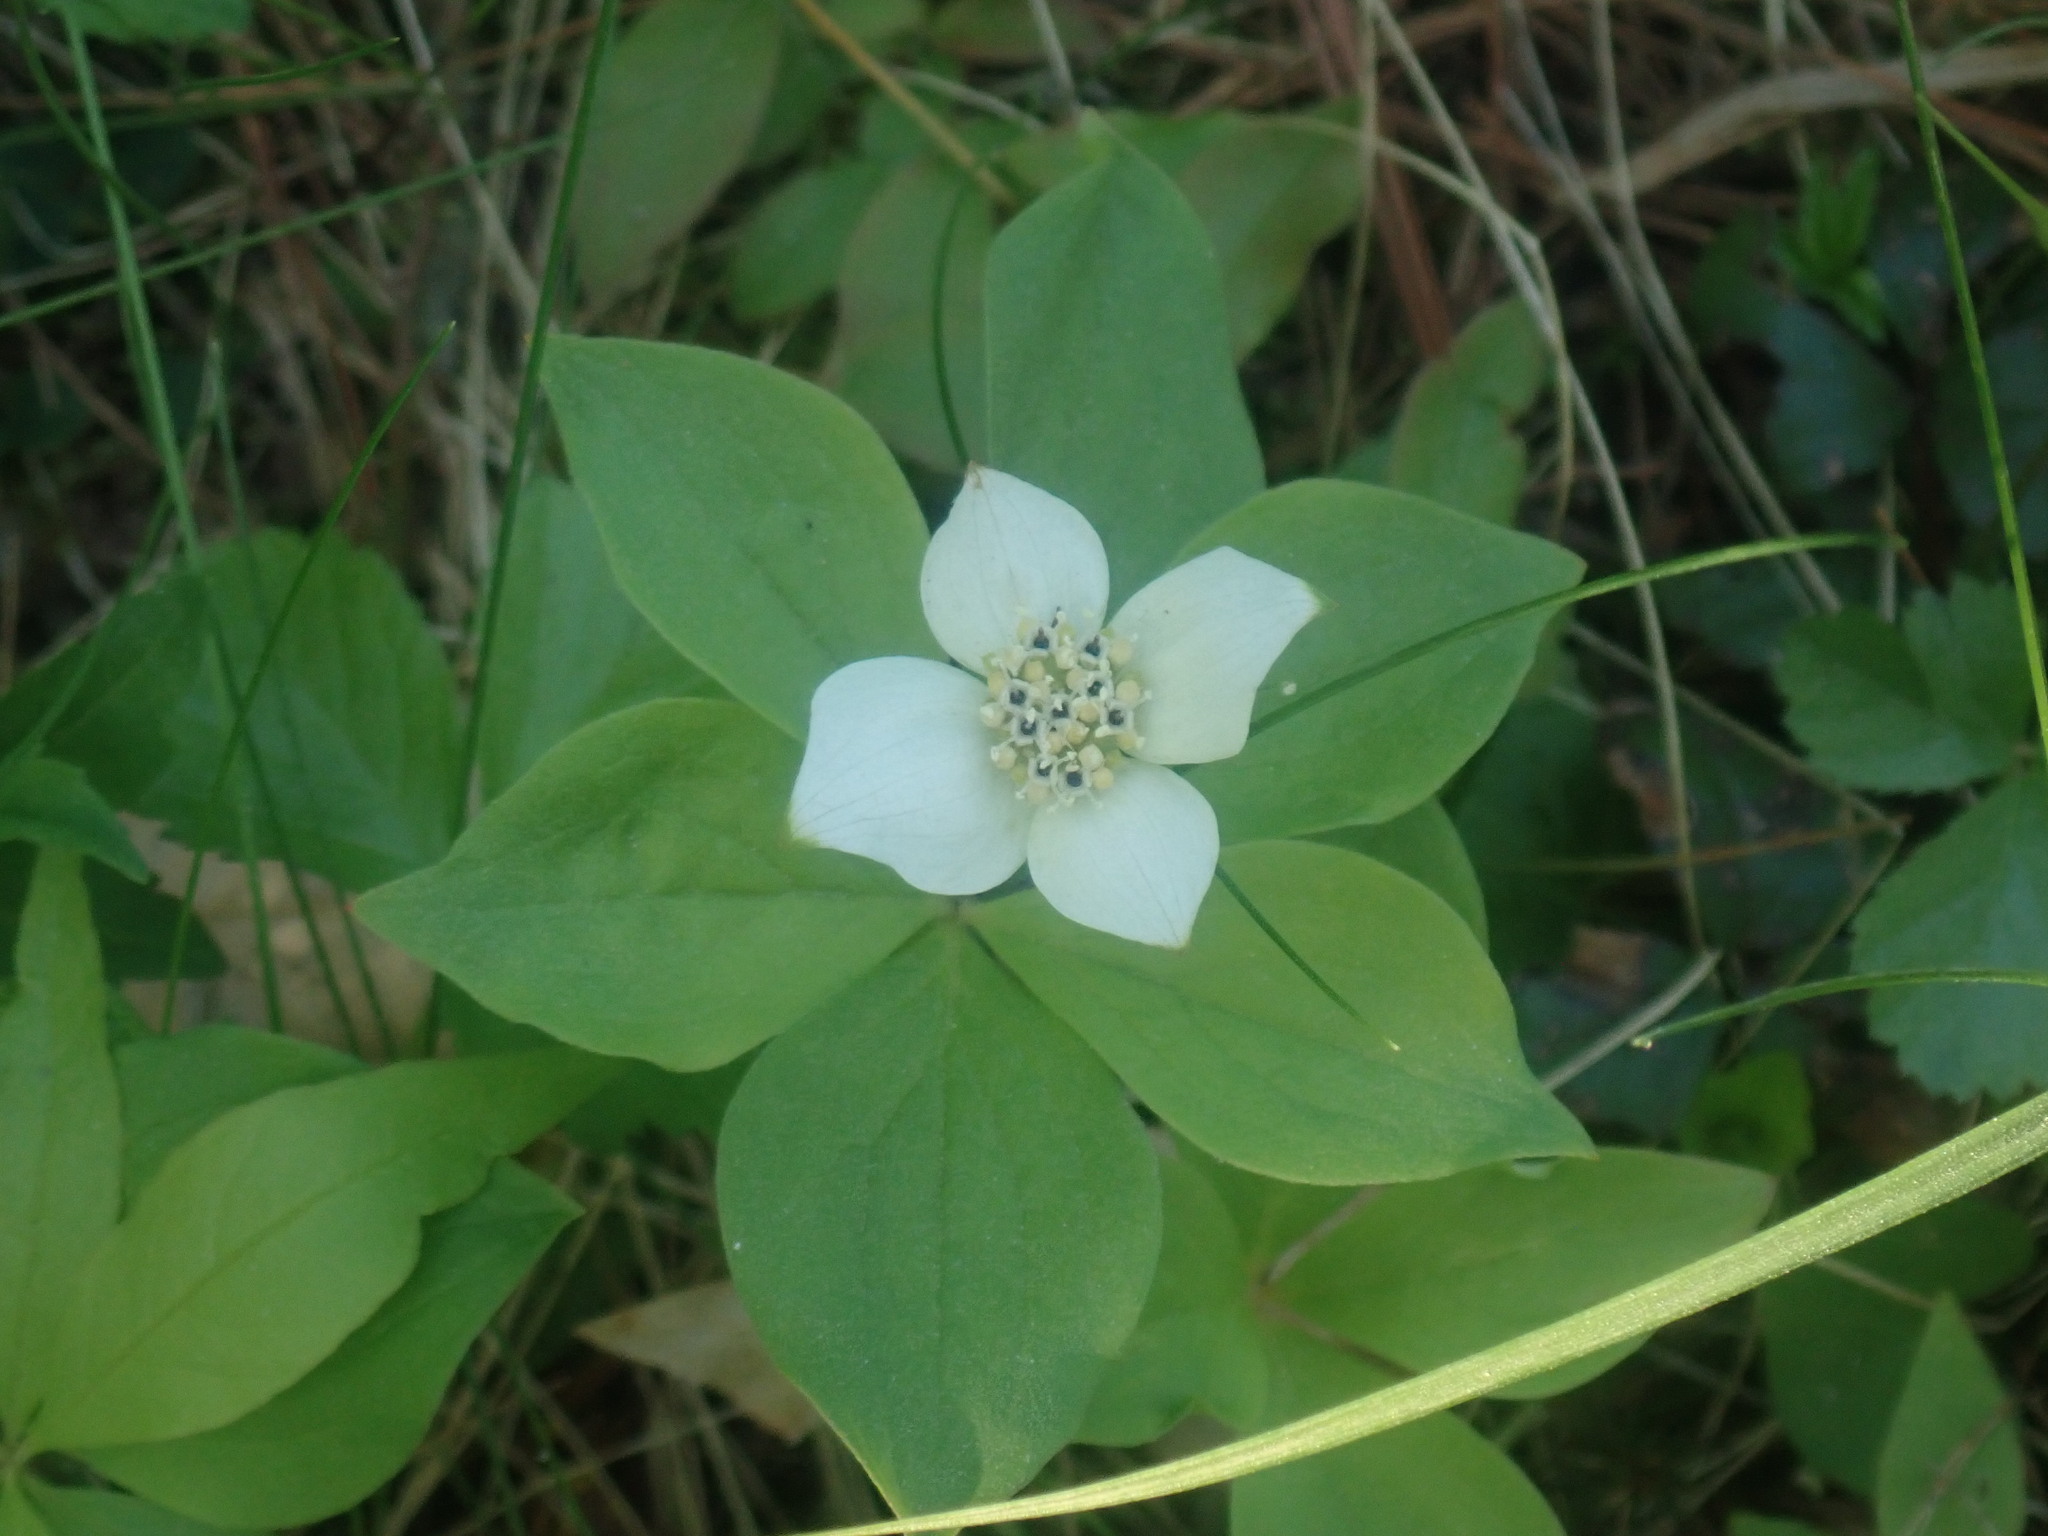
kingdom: Plantae
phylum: Tracheophyta
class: Magnoliopsida
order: Cornales
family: Cornaceae
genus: Cornus
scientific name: Cornus canadensis
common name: Creeping dogwood
